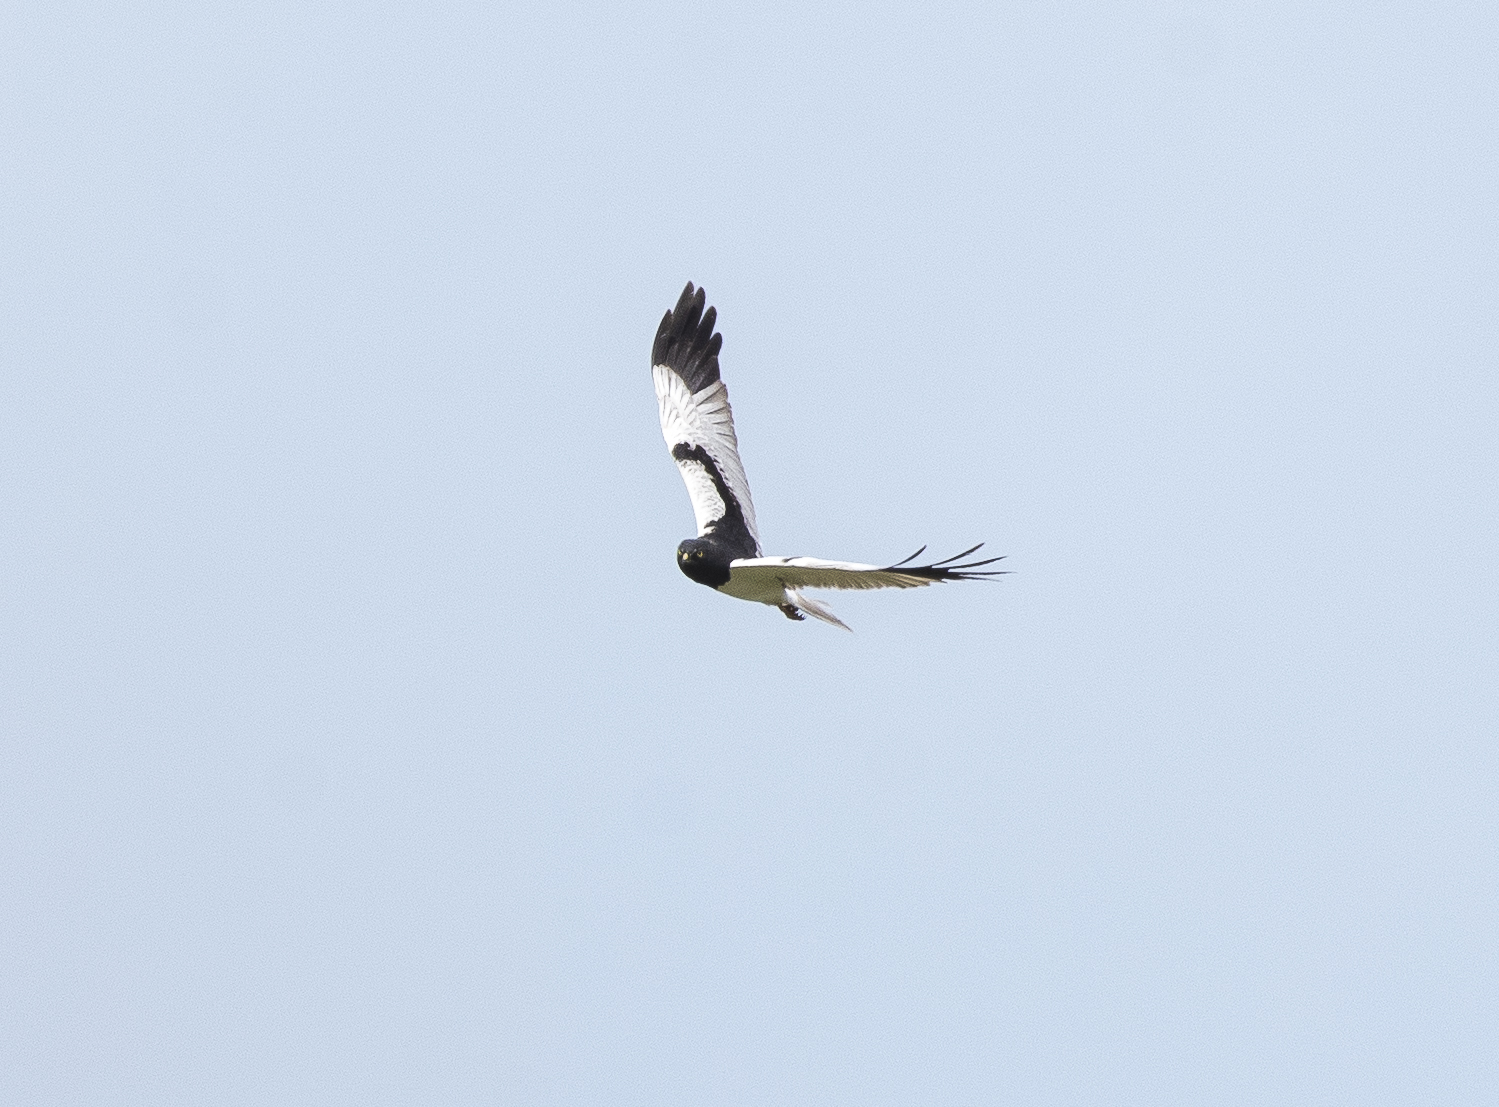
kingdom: Animalia
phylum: Chordata
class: Aves
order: Accipitriformes
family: Accipitridae
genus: Circus
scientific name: Circus melanoleucos
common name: Pied harrier
